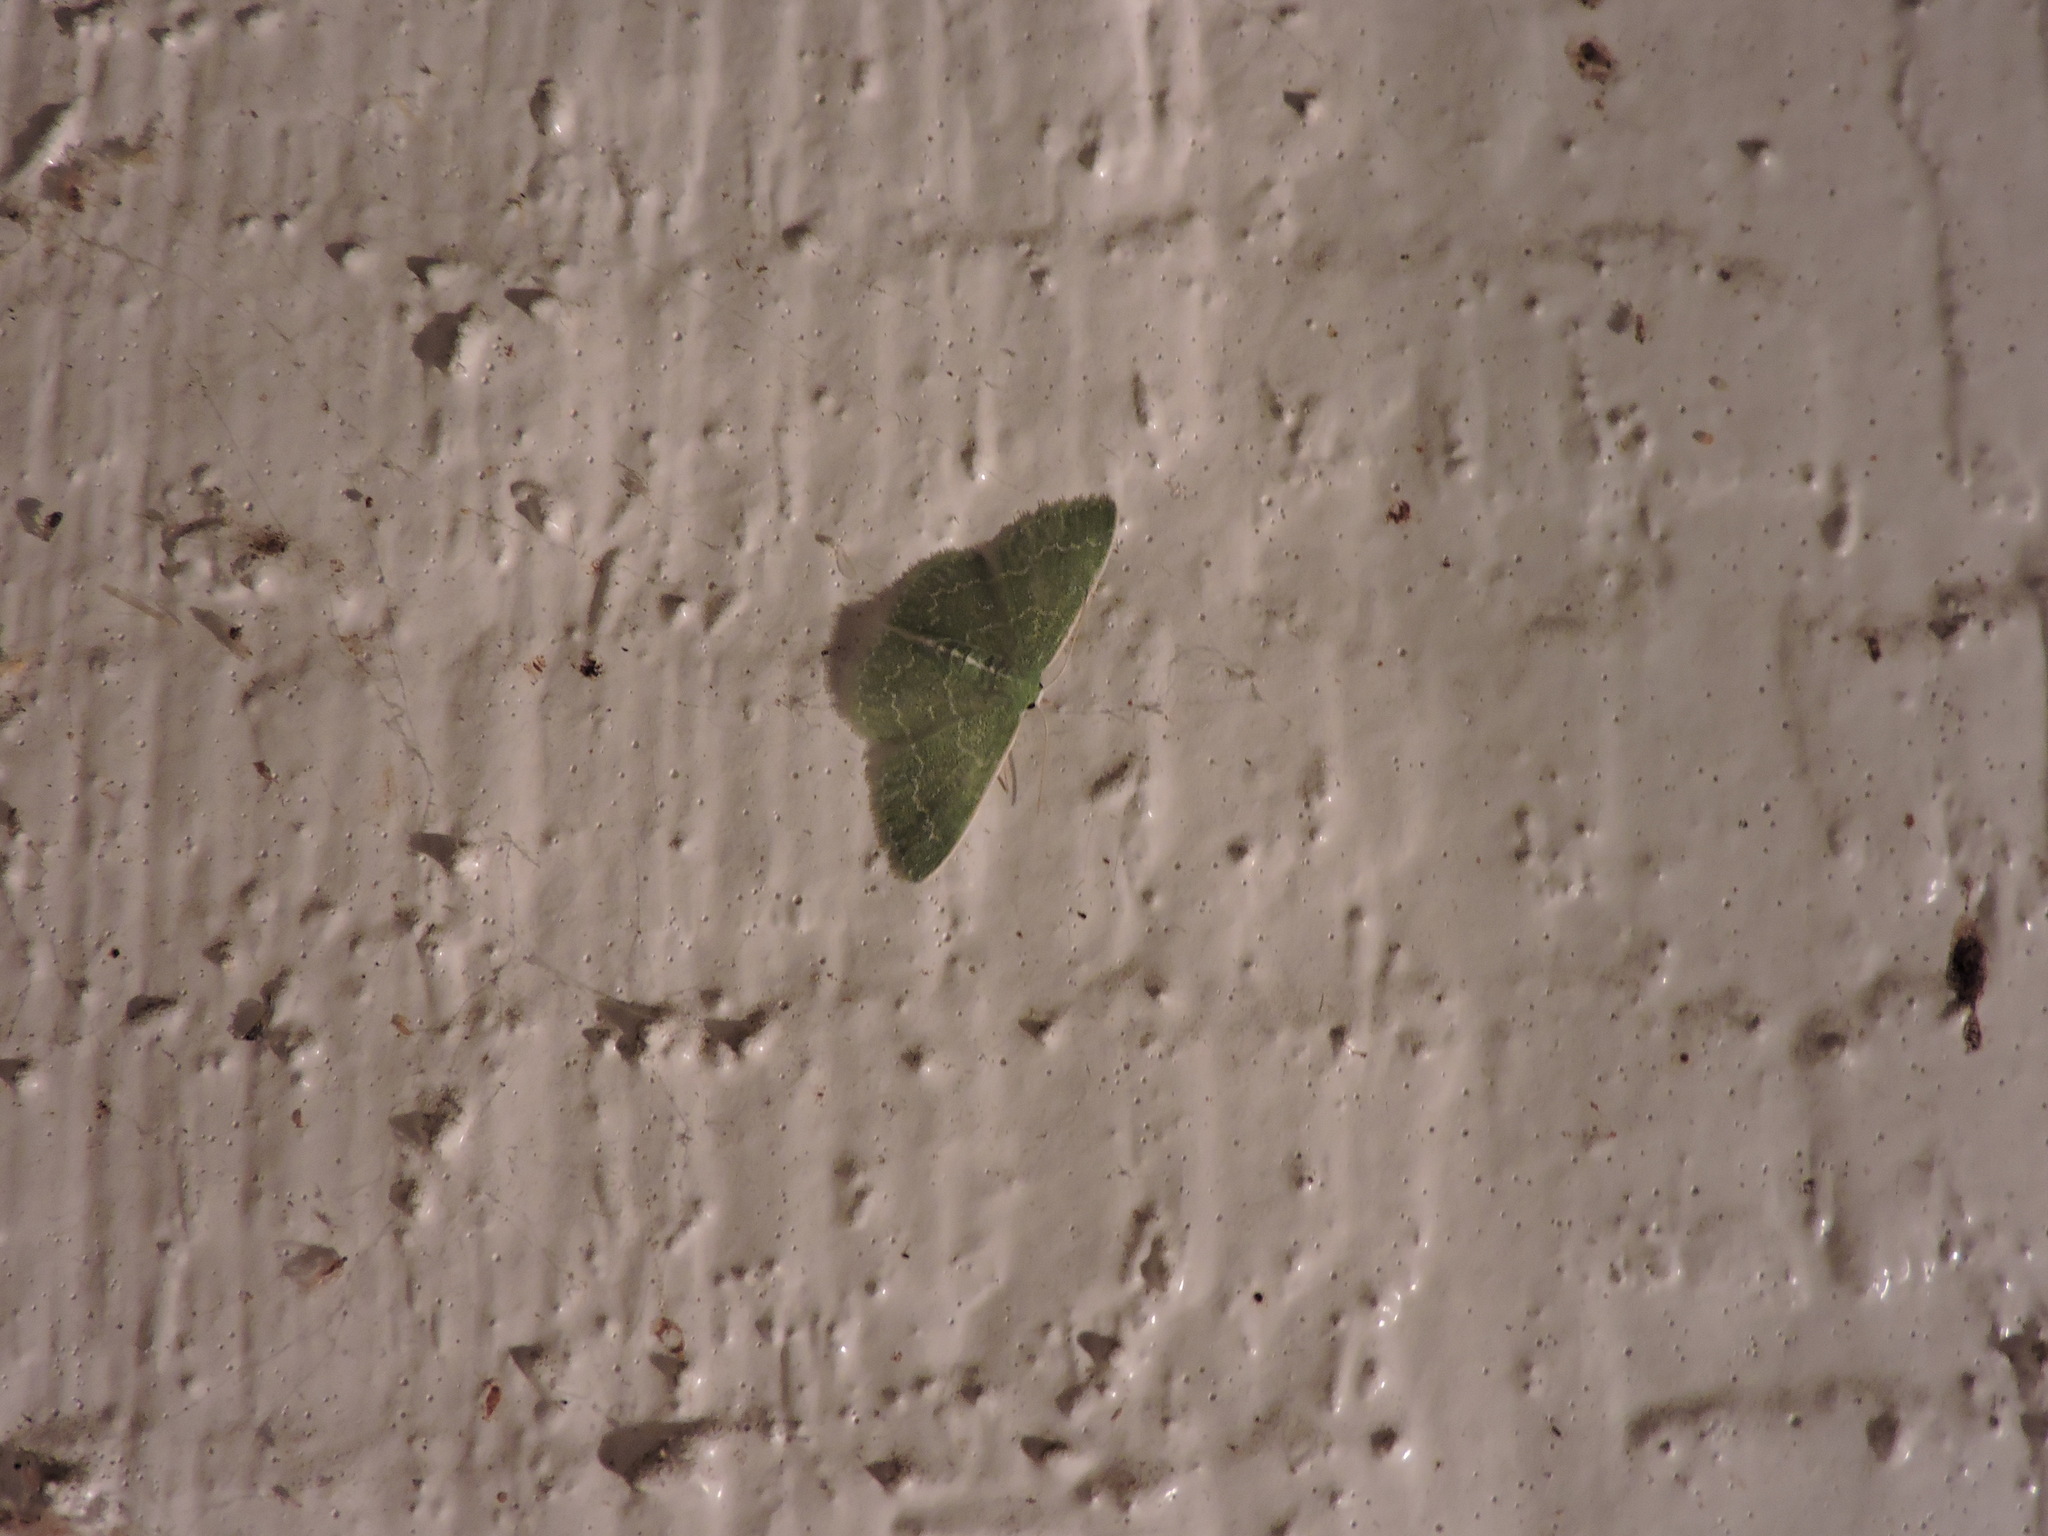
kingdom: Animalia
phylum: Arthropoda
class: Insecta
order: Lepidoptera
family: Geometridae
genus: Synchlora
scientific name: Synchlora frondaria
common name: Southern emerald
